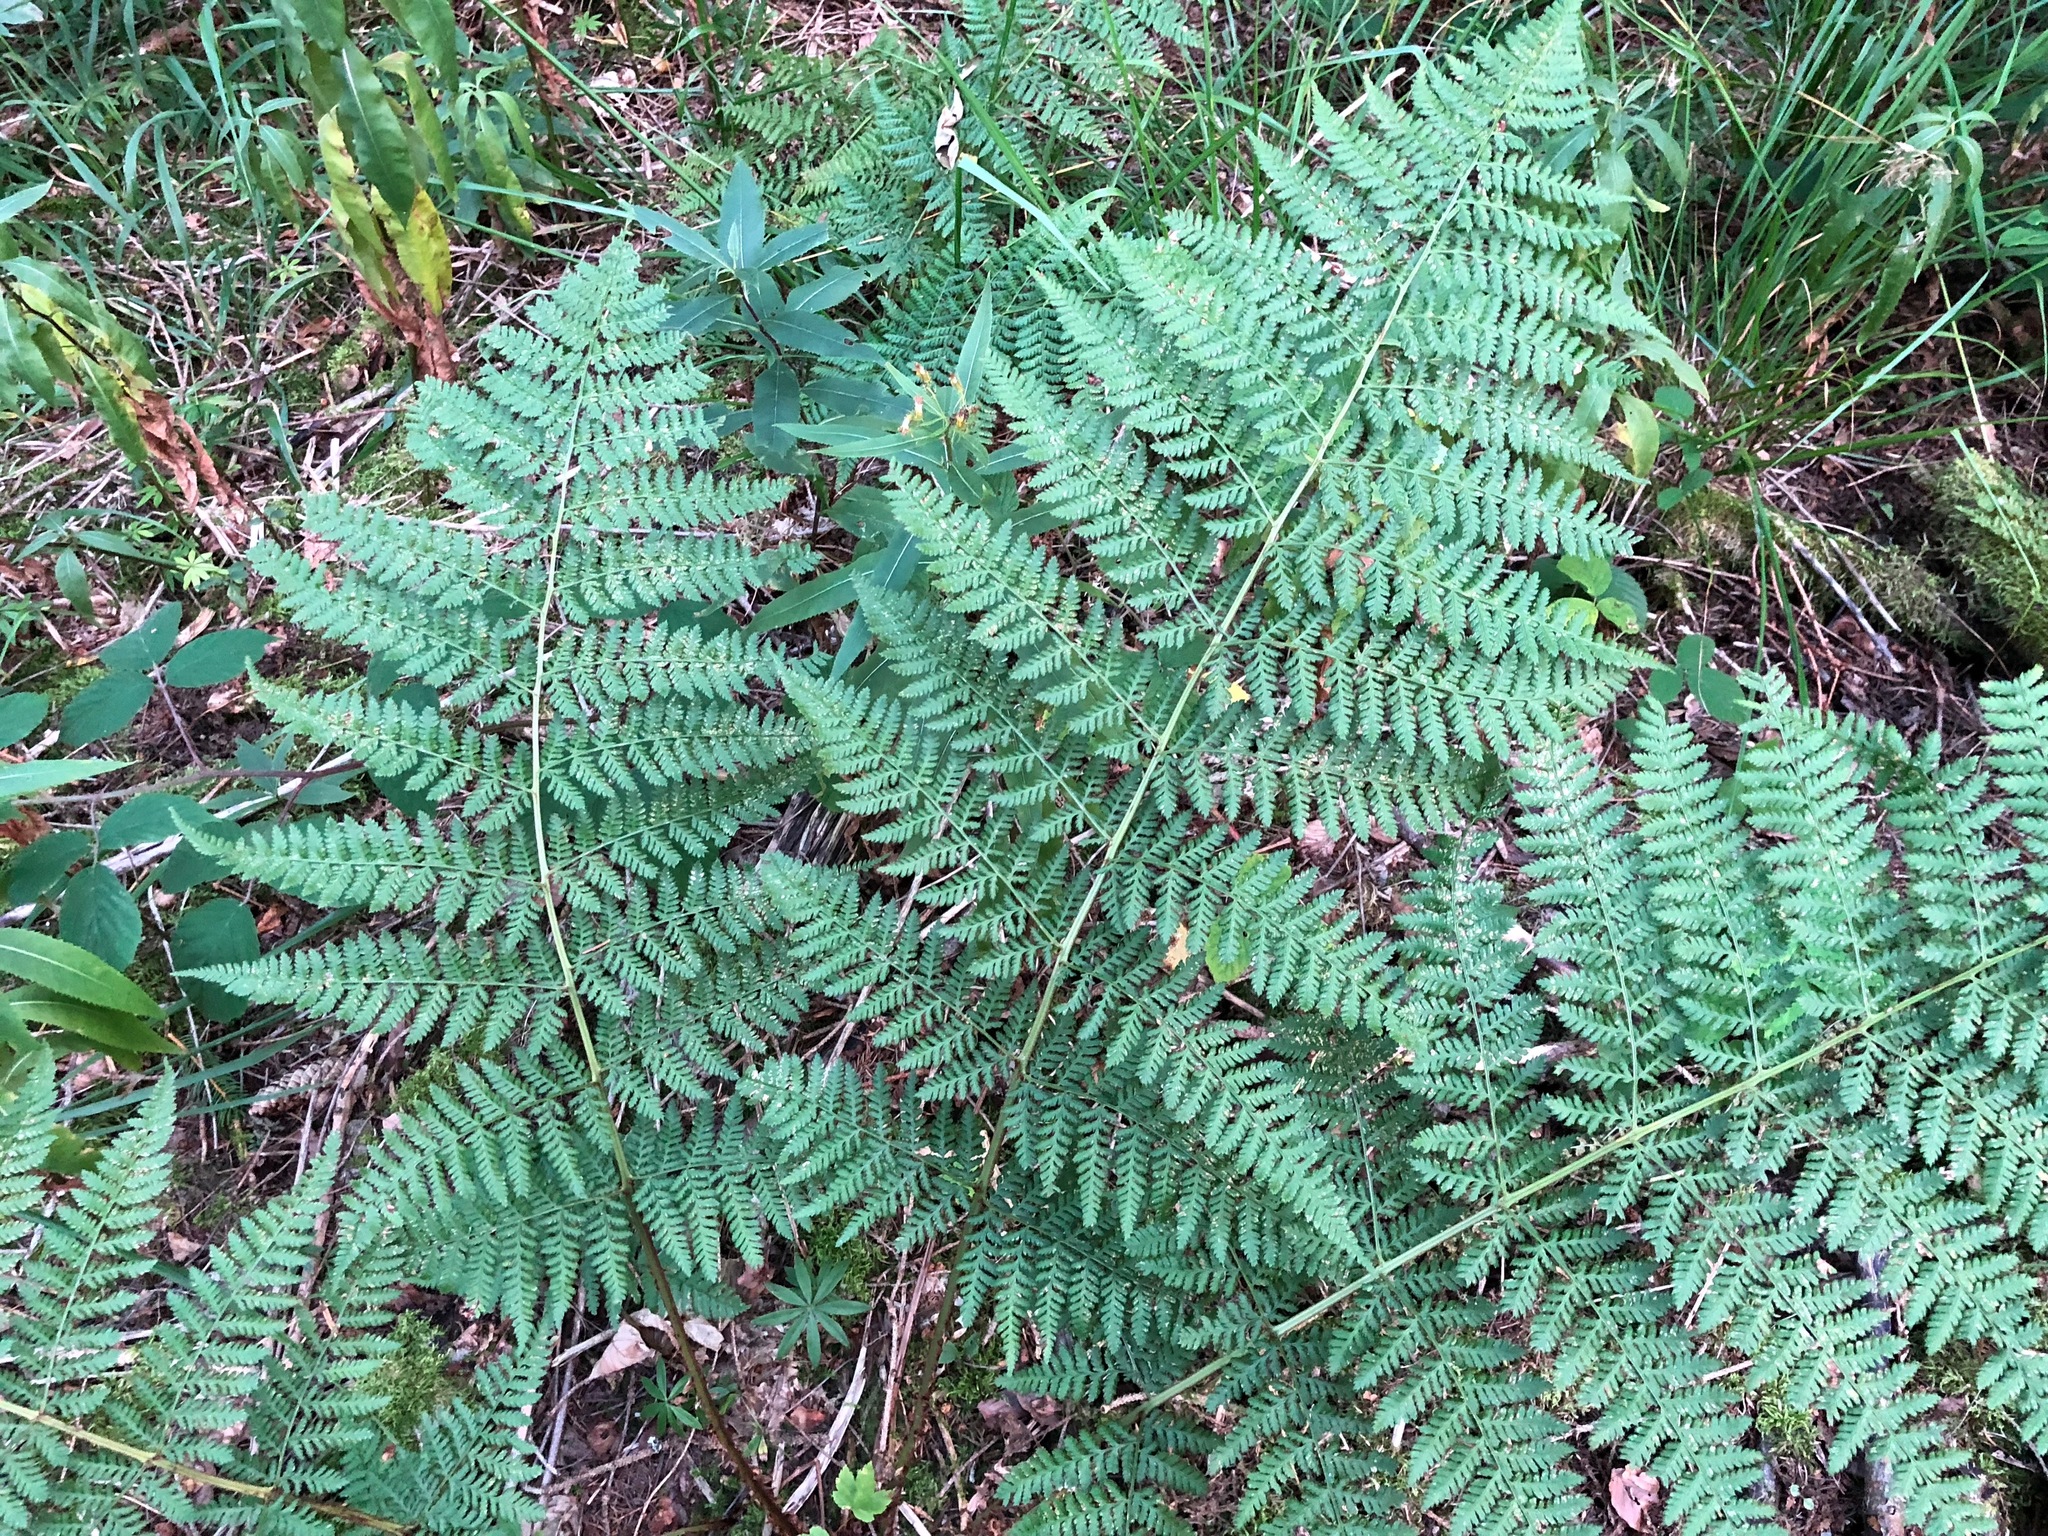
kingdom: Plantae
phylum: Tracheophyta
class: Polypodiopsida
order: Polypodiales
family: Dryopteridaceae
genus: Dryopteris
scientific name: Dryopteris dilatata
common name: Broad buckler-fern
